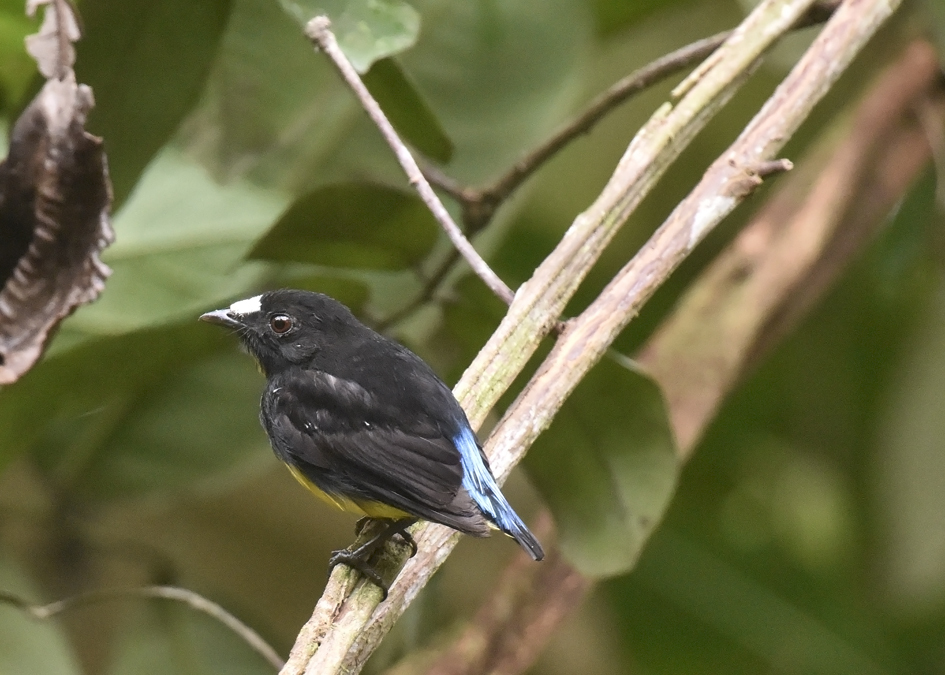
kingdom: Animalia
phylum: Chordata
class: Aves
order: Passeriformes
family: Pipridae
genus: Lepidothrix
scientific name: Lepidothrix serena
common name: White-fronted manakin
